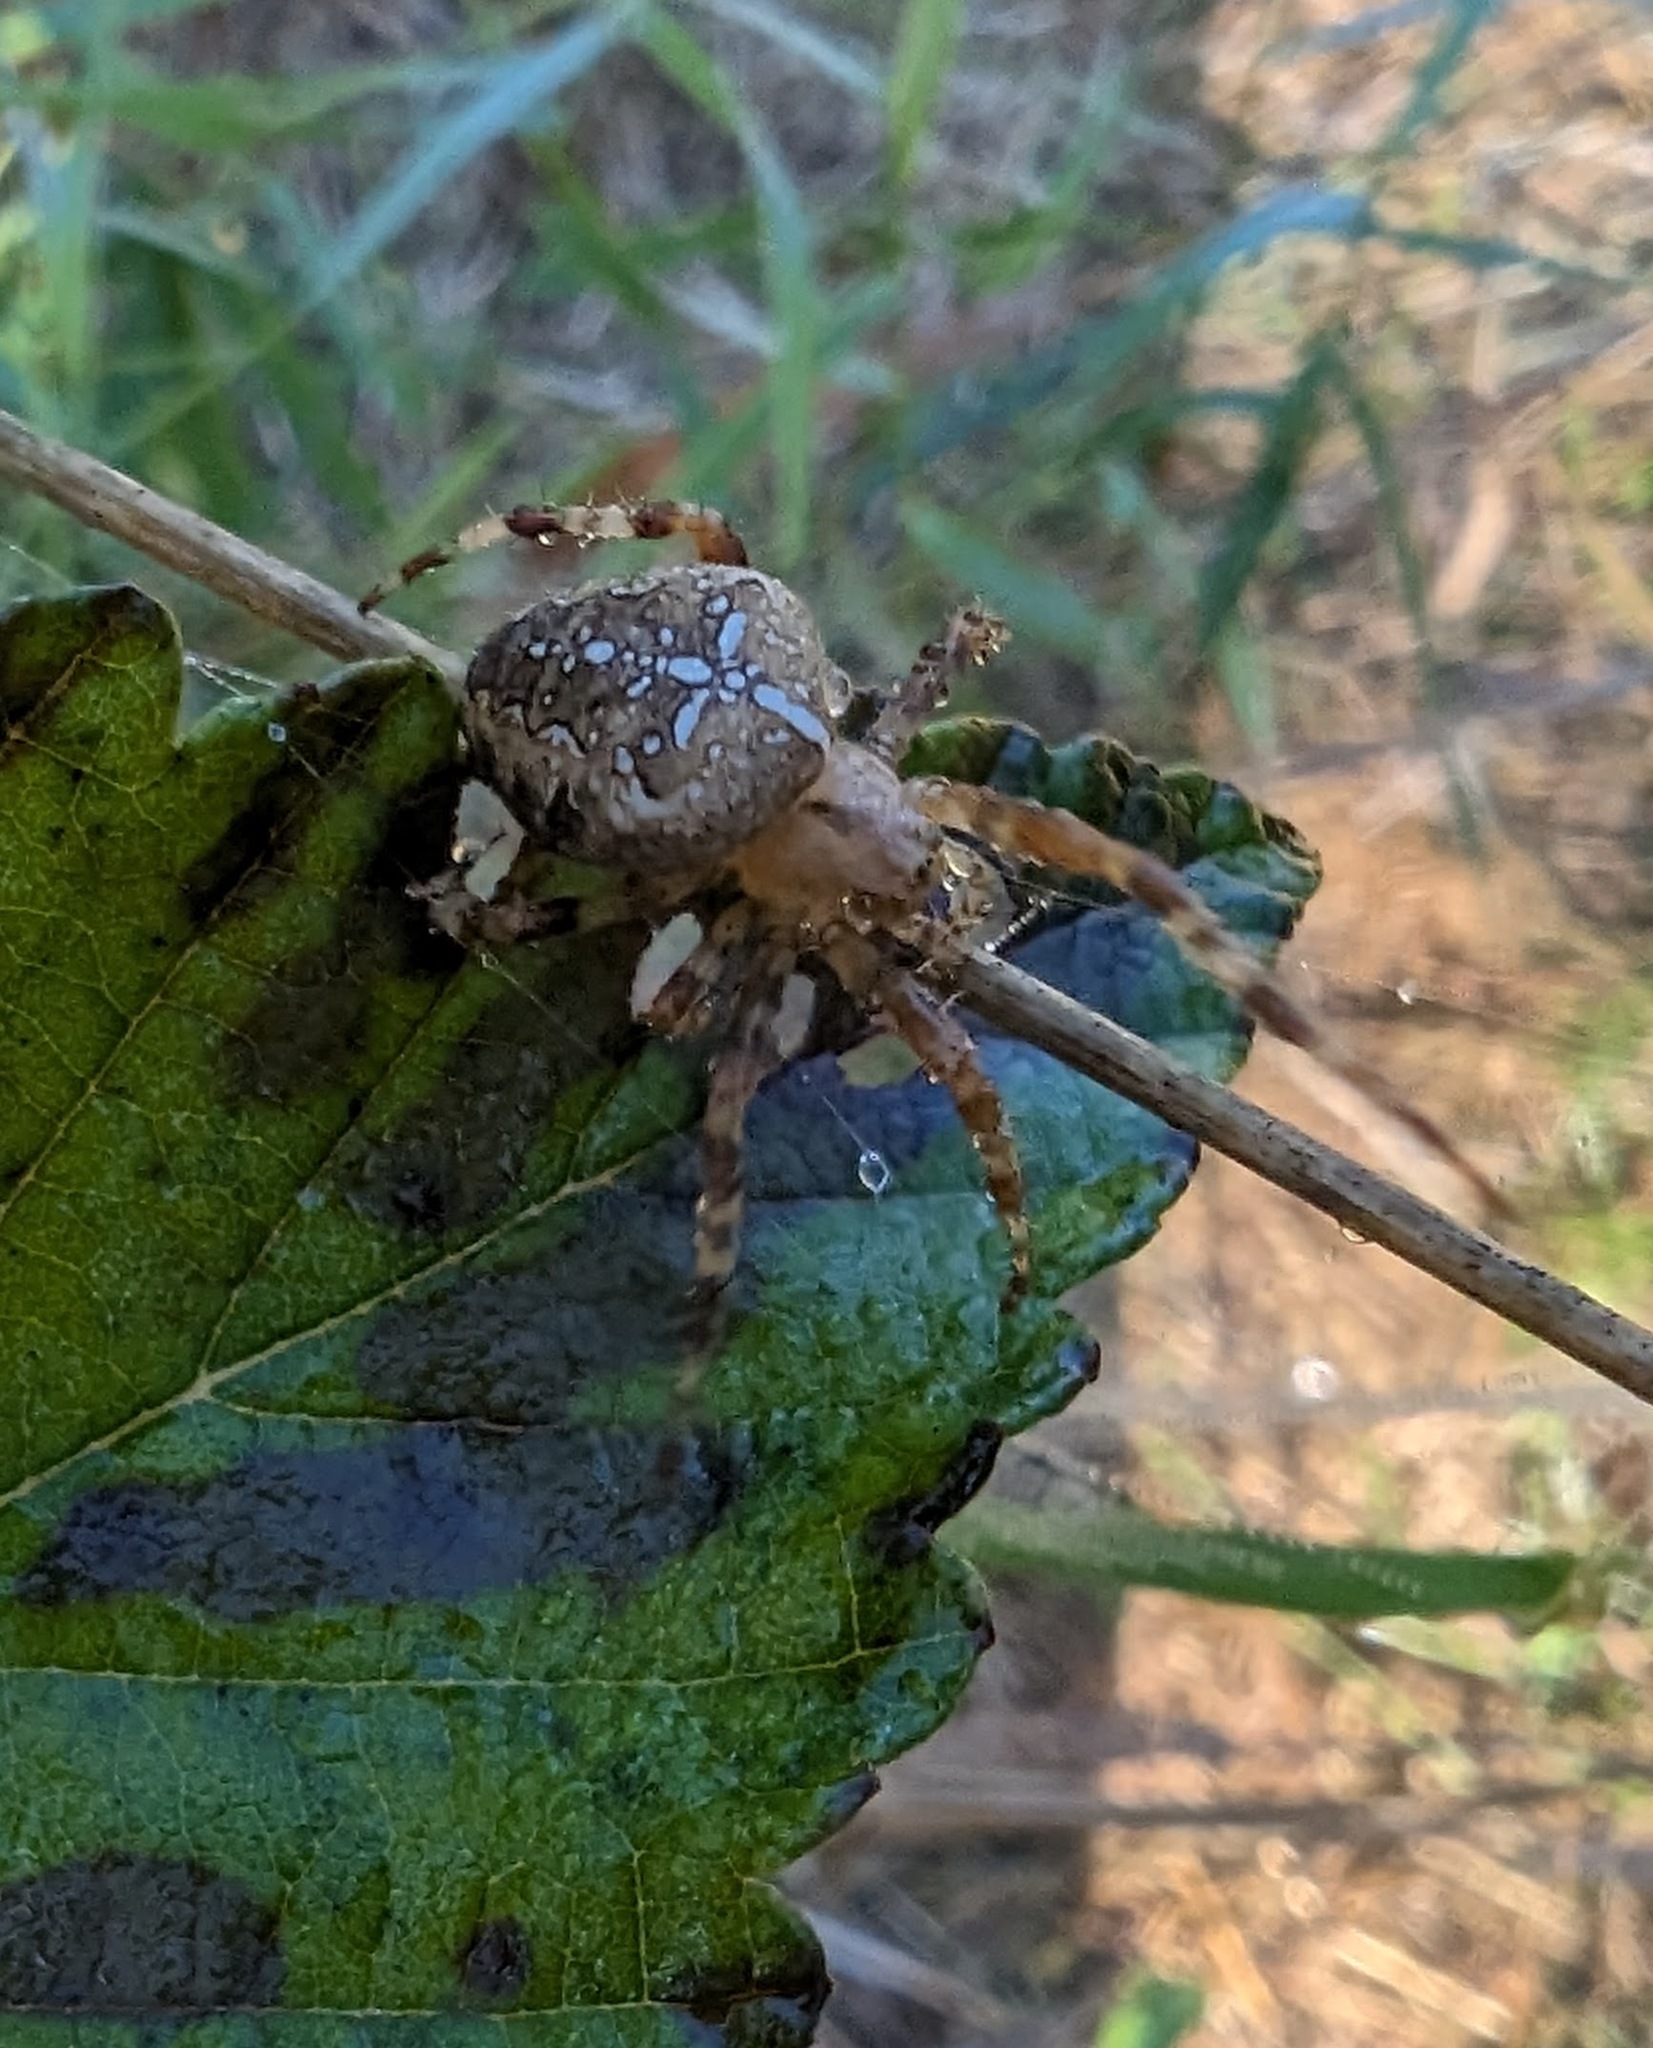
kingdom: Animalia
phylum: Arthropoda
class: Arachnida
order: Araneae
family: Araneidae
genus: Araneus
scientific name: Araneus diadematus
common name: Cross orbweaver
